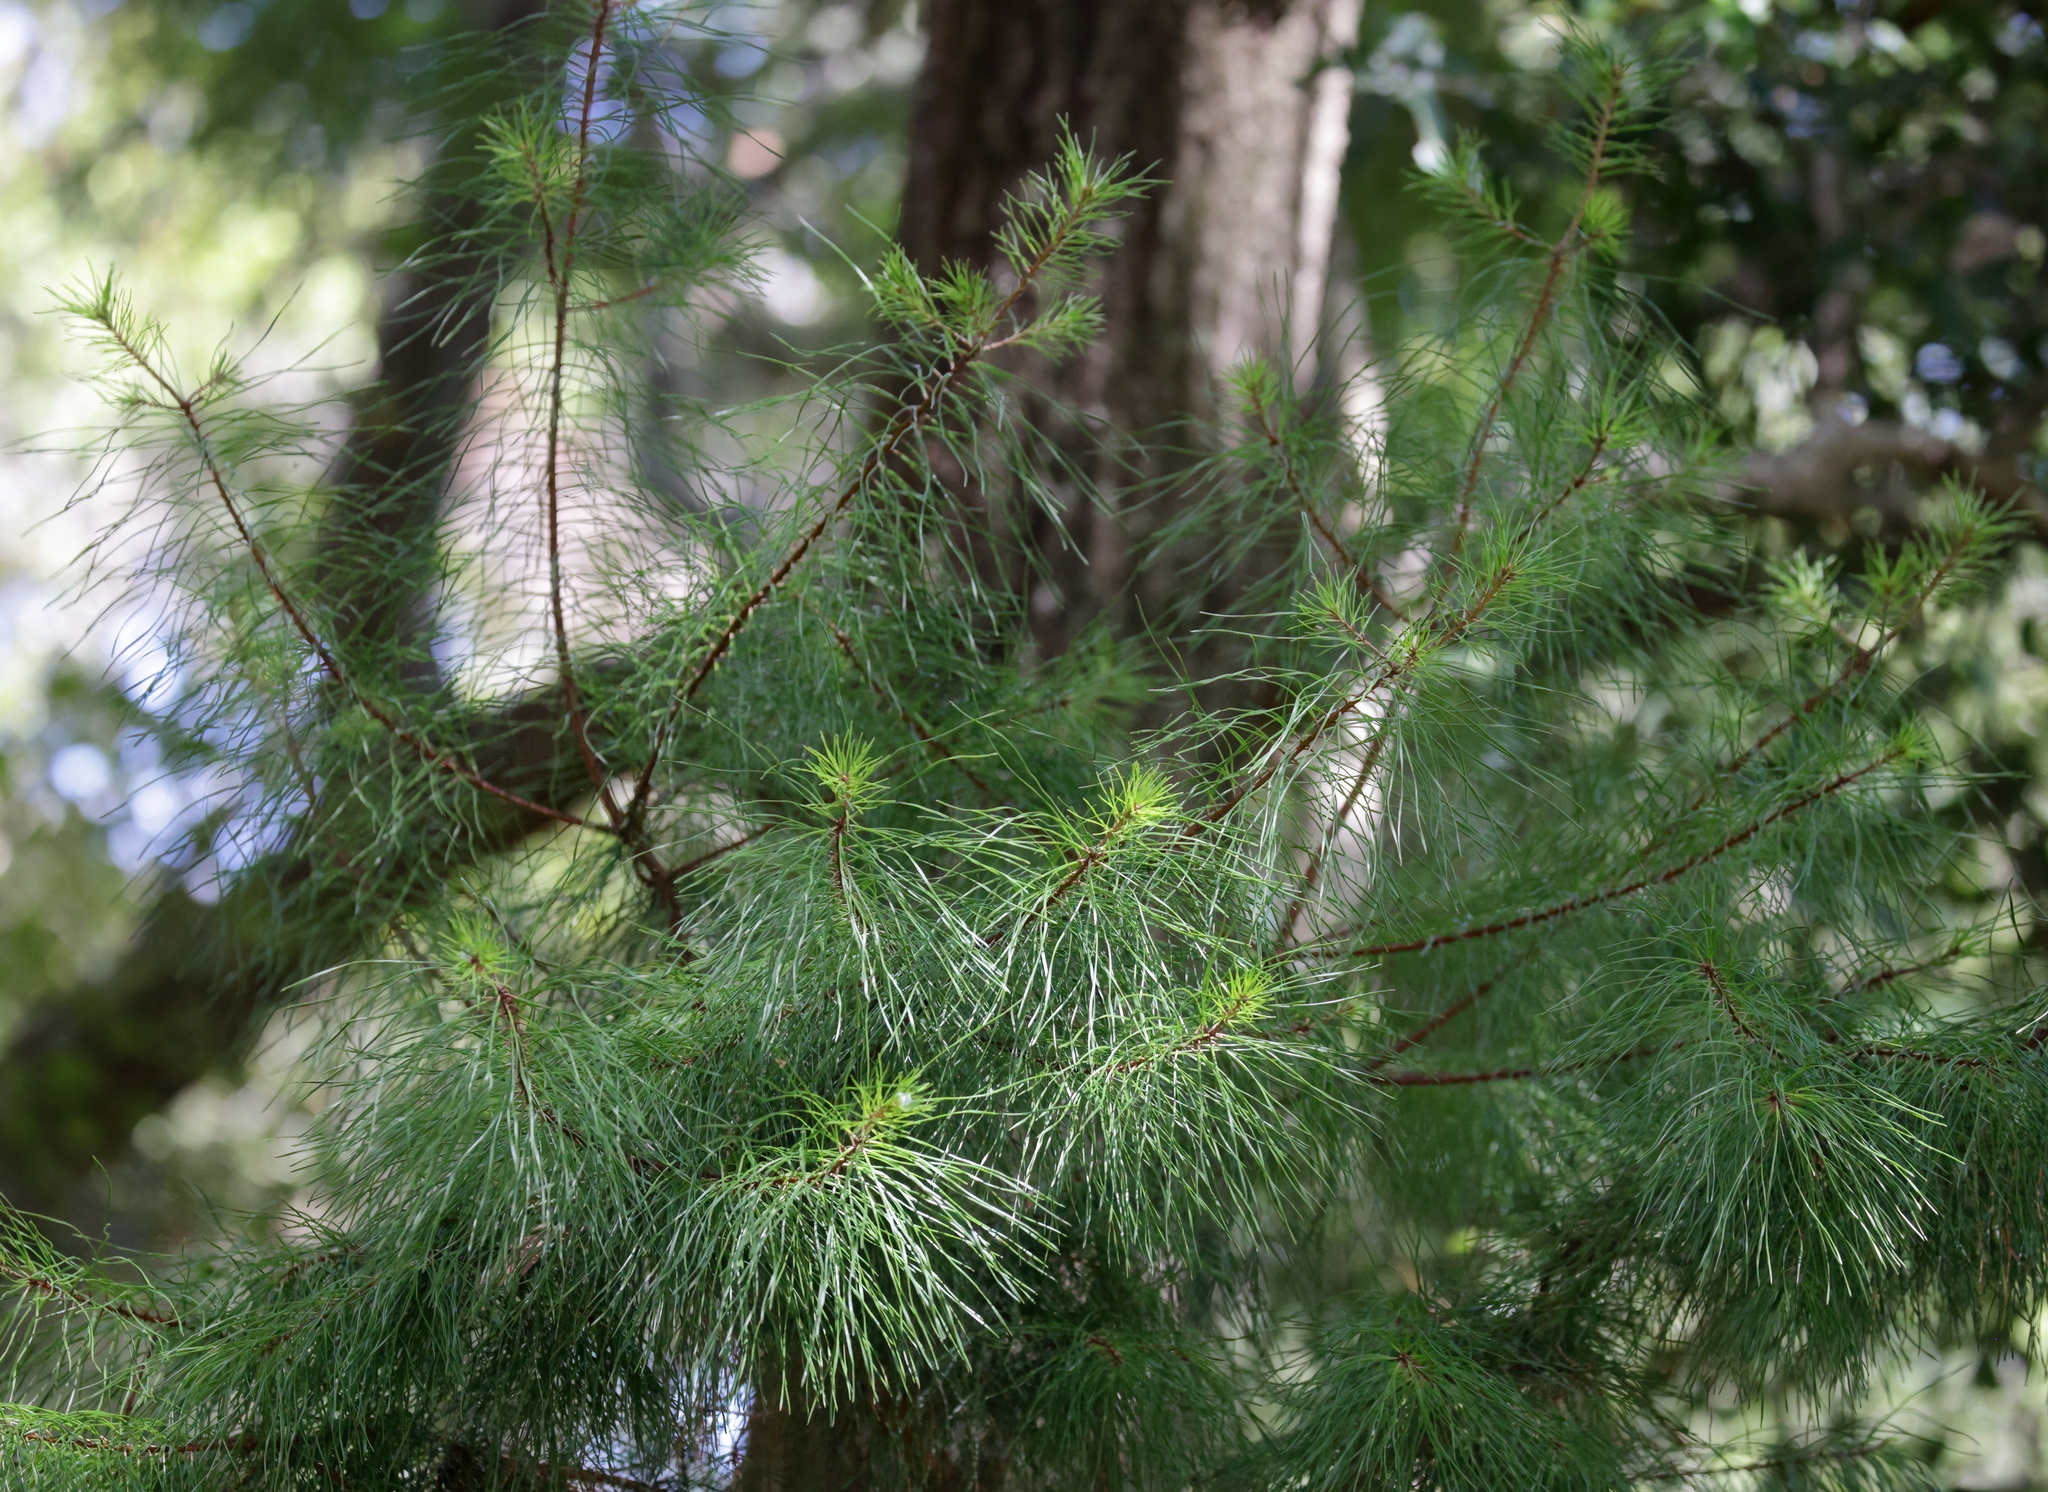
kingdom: Plantae
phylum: Tracheophyta
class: Pinopsida
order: Pinales
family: Pinaceae
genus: Pinus
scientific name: Pinus clausa
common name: Sand pine
